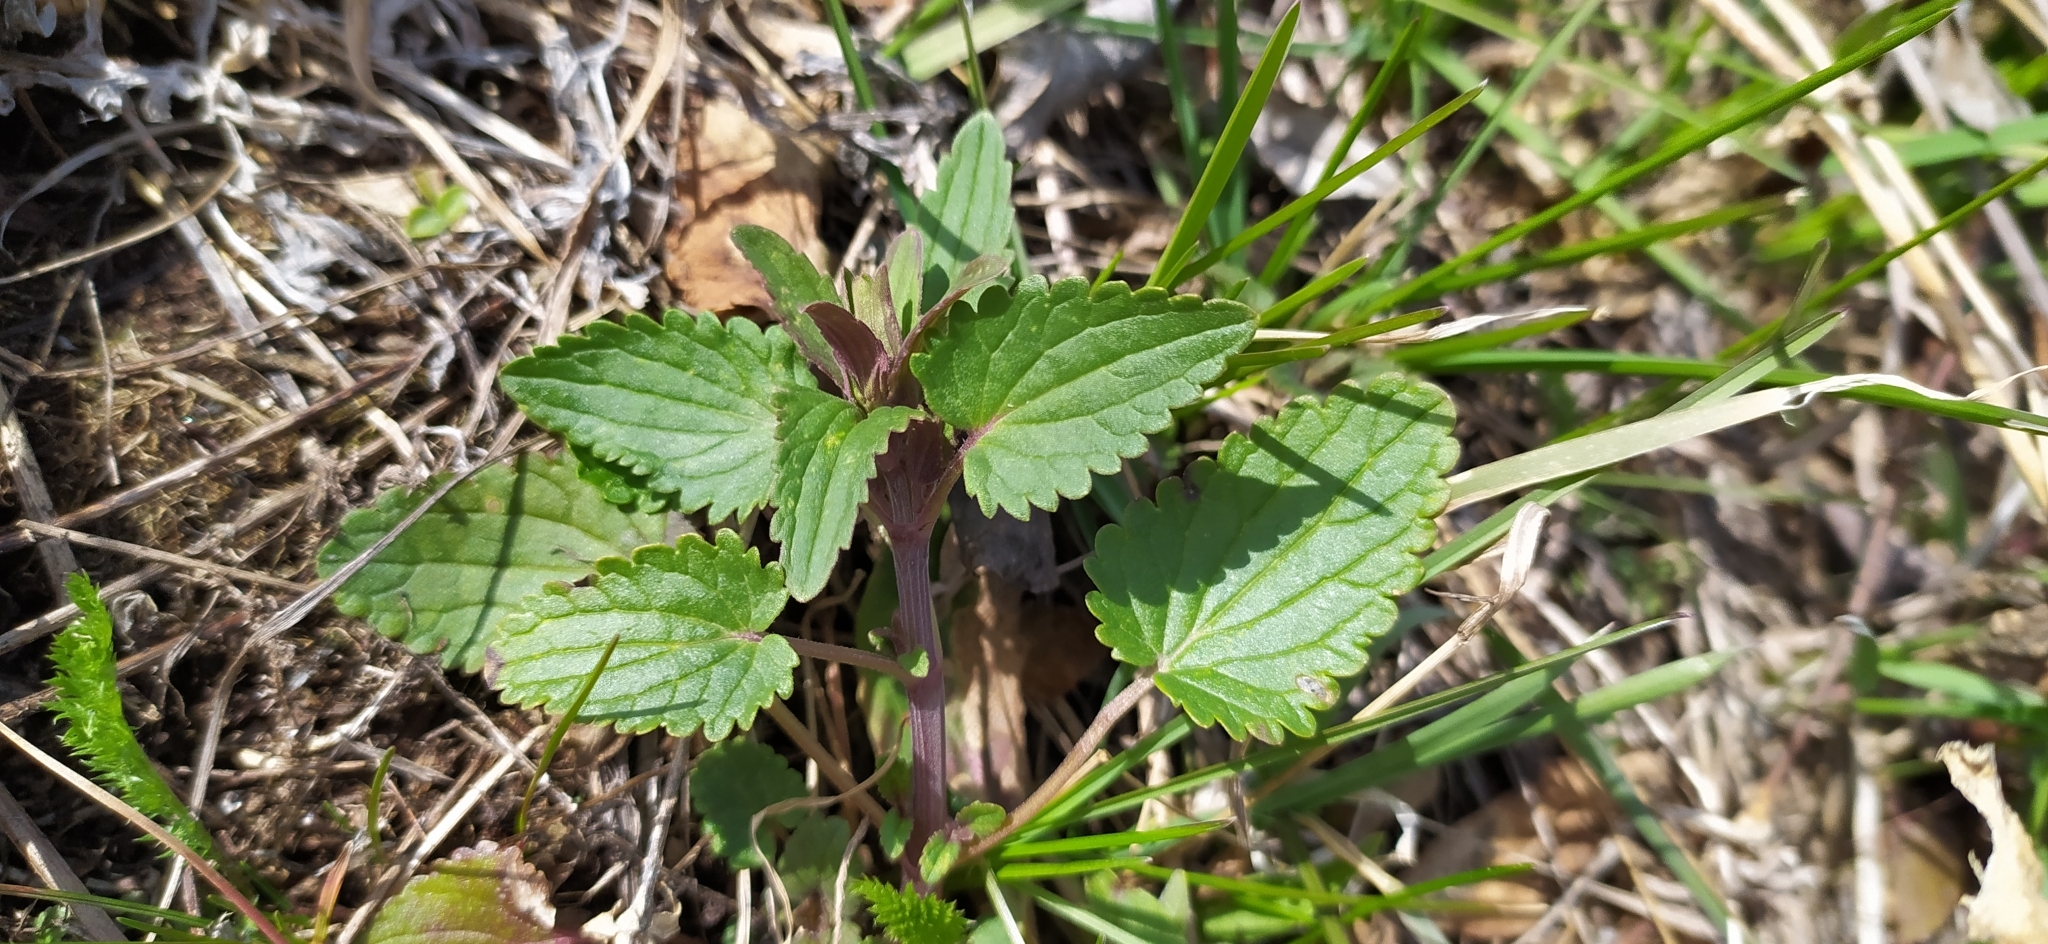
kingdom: Plantae
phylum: Tracheophyta
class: Magnoliopsida
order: Lamiales
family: Lamiaceae
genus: Dracocephalum
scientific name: Dracocephalum thymiflorum
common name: Thymeleaf dragonhead
